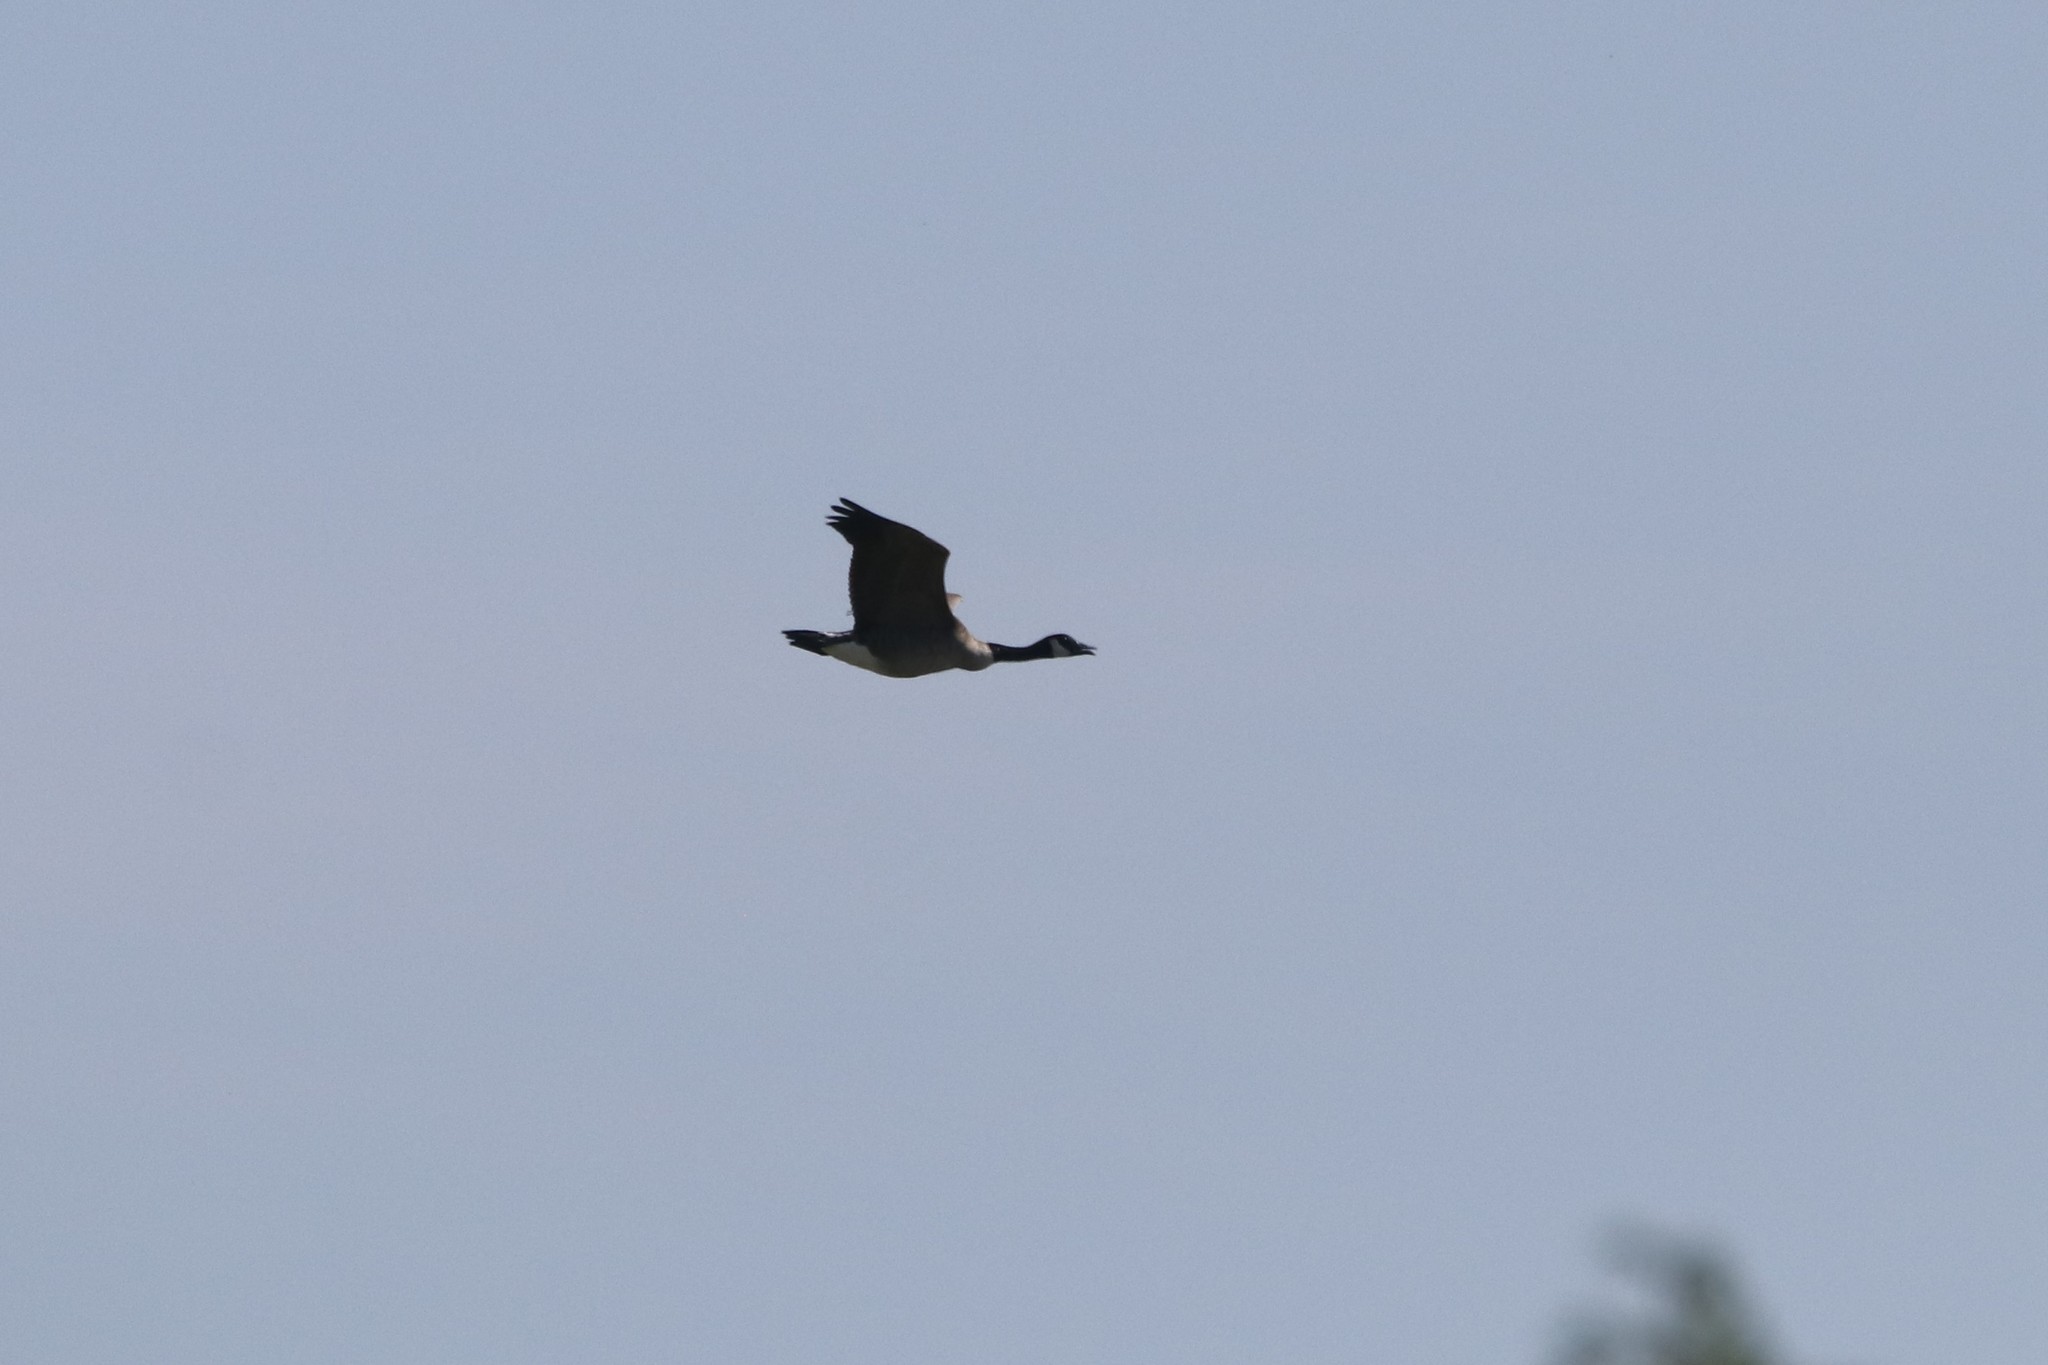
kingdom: Animalia
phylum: Chordata
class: Aves
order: Anseriformes
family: Anatidae
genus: Branta
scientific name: Branta canadensis
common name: Canada goose
